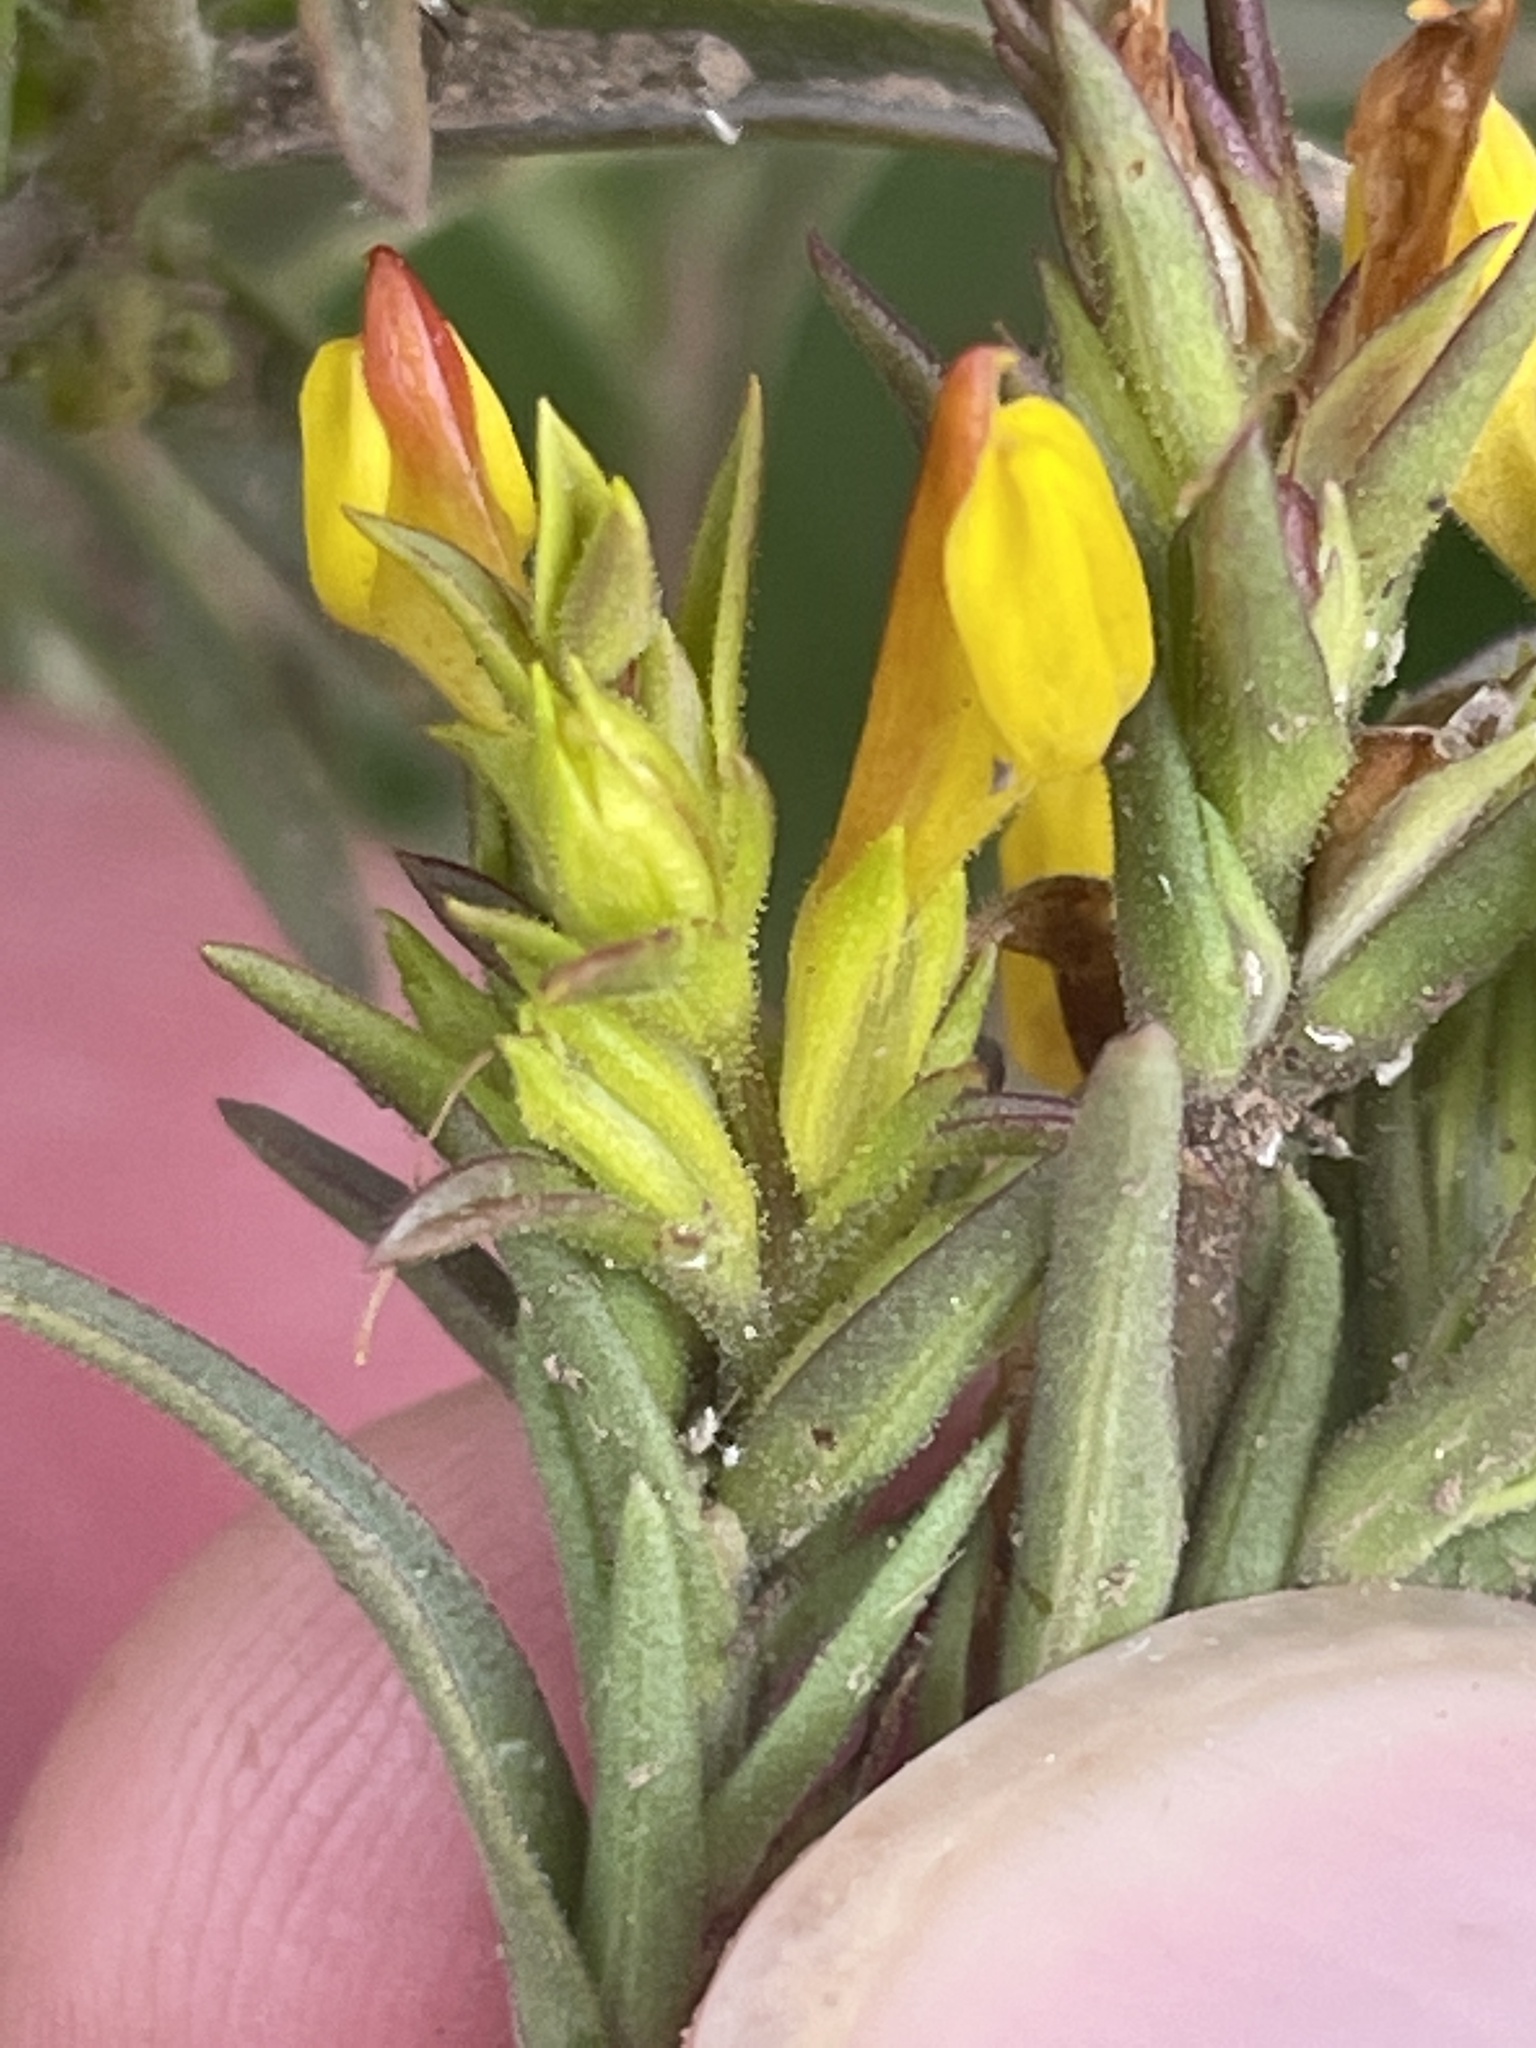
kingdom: Plantae
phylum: Tracheophyta
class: Magnoliopsida
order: Lamiales
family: Orobanchaceae
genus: Orthocarpus
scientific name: Orthocarpus tolmiei
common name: Tolmie's owl-clover
